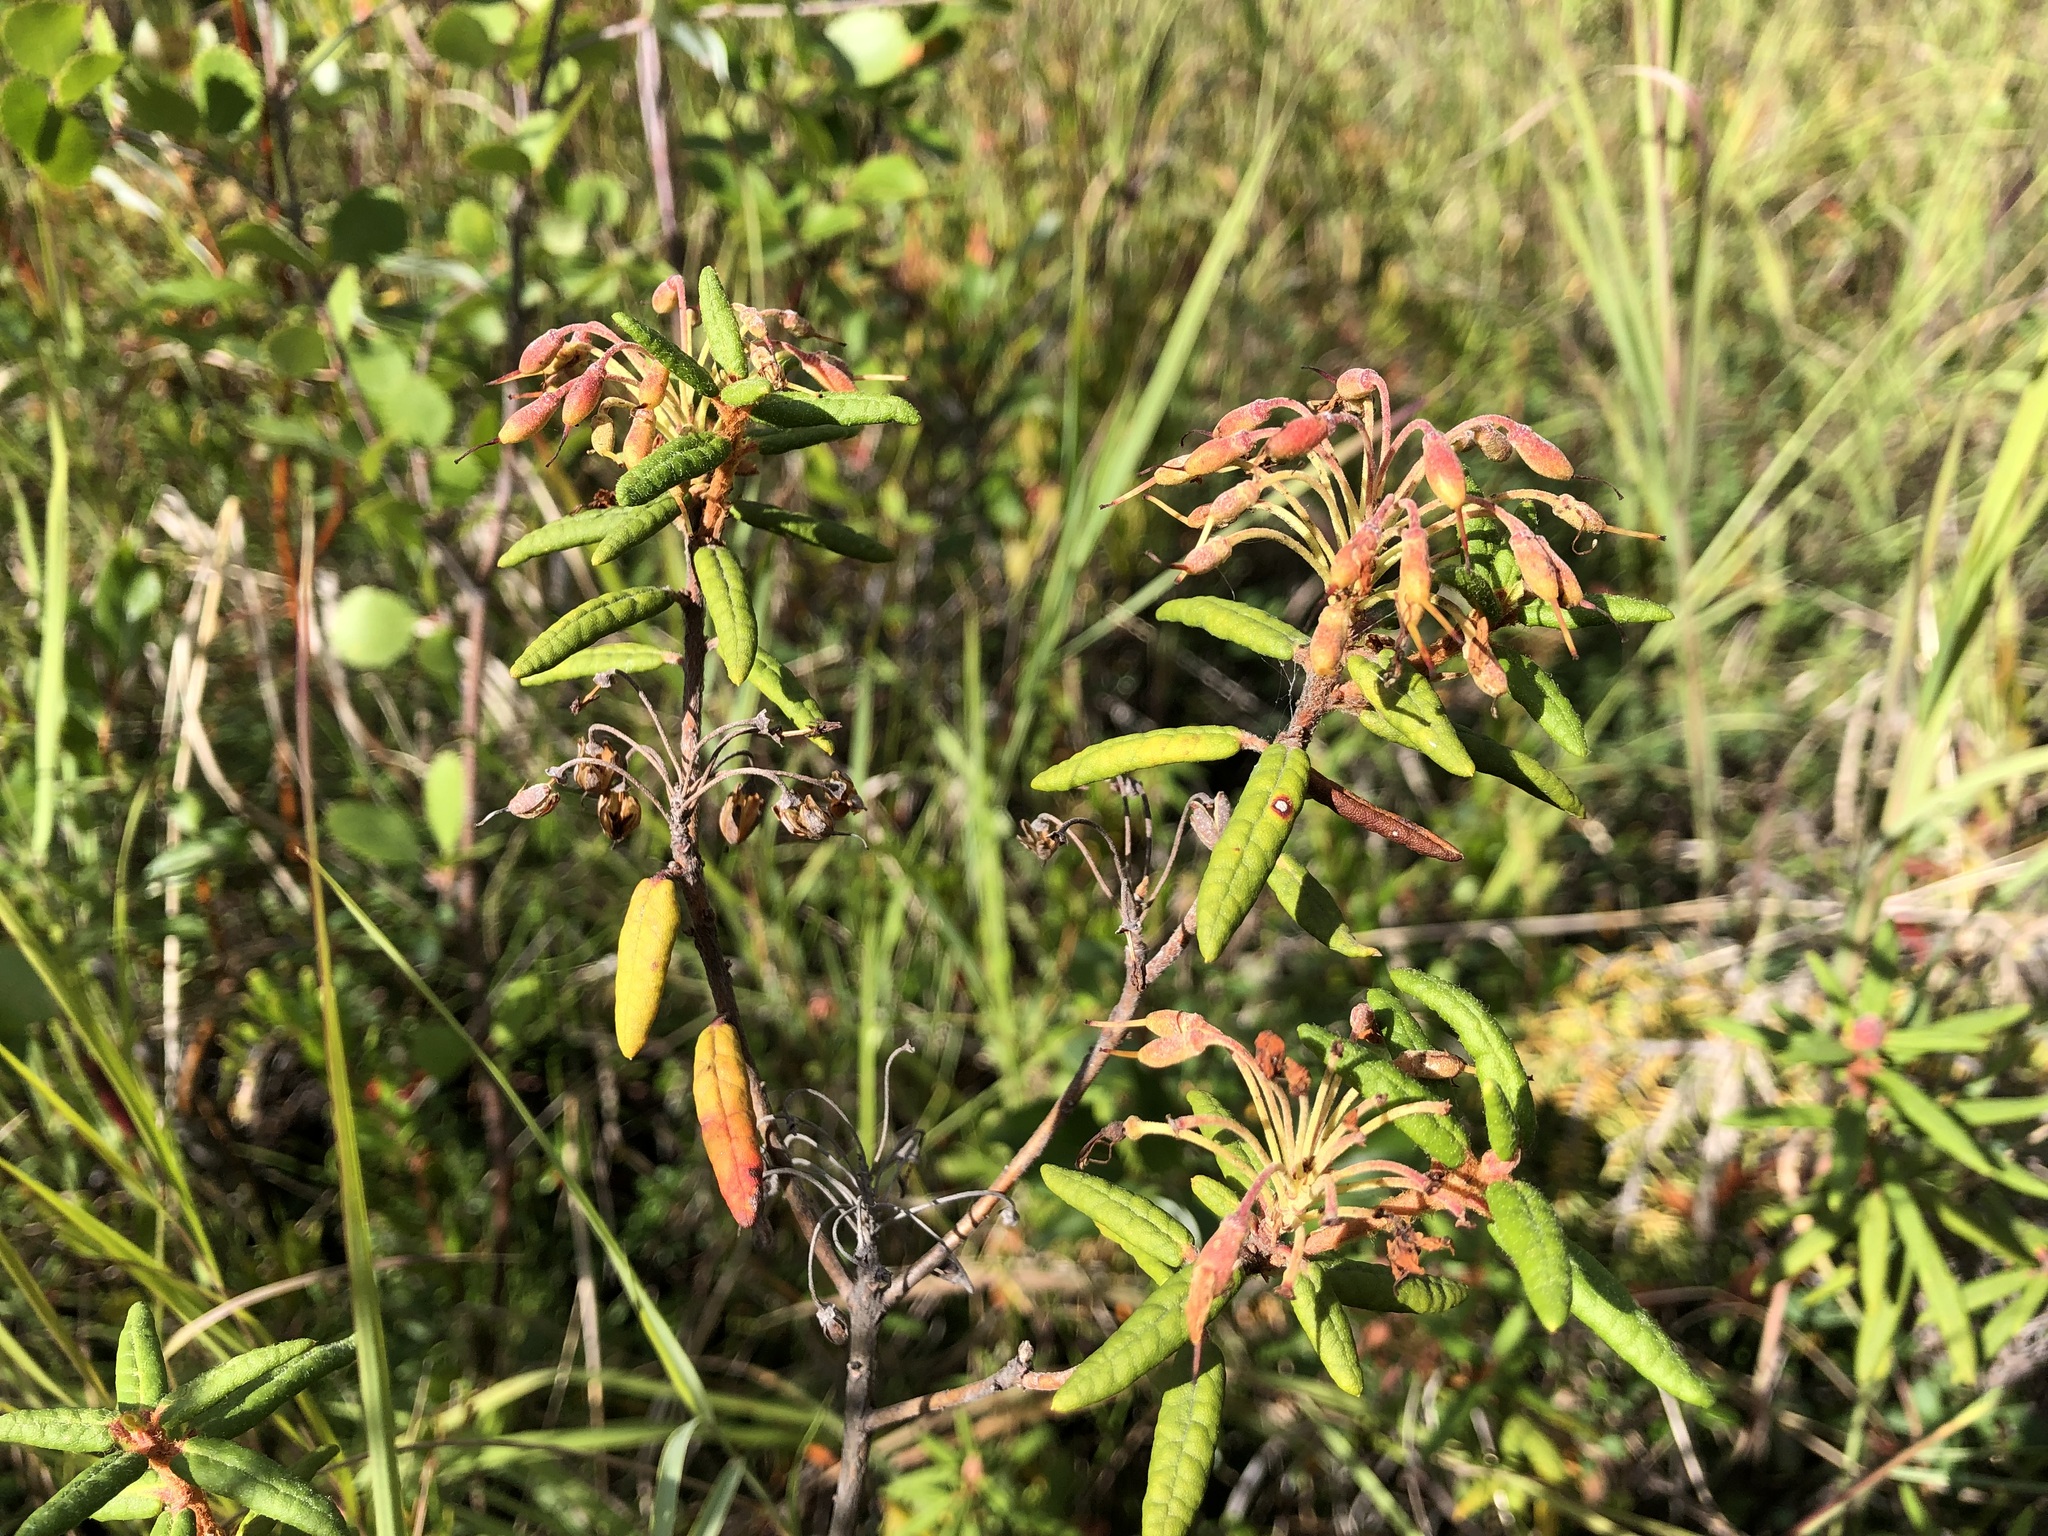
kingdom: Plantae
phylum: Tracheophyta
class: Magnoliopsida
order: Ericales
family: Ericaceae
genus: Rhododendron
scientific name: Rhododendron groenlandicum
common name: Bog labrador tea
